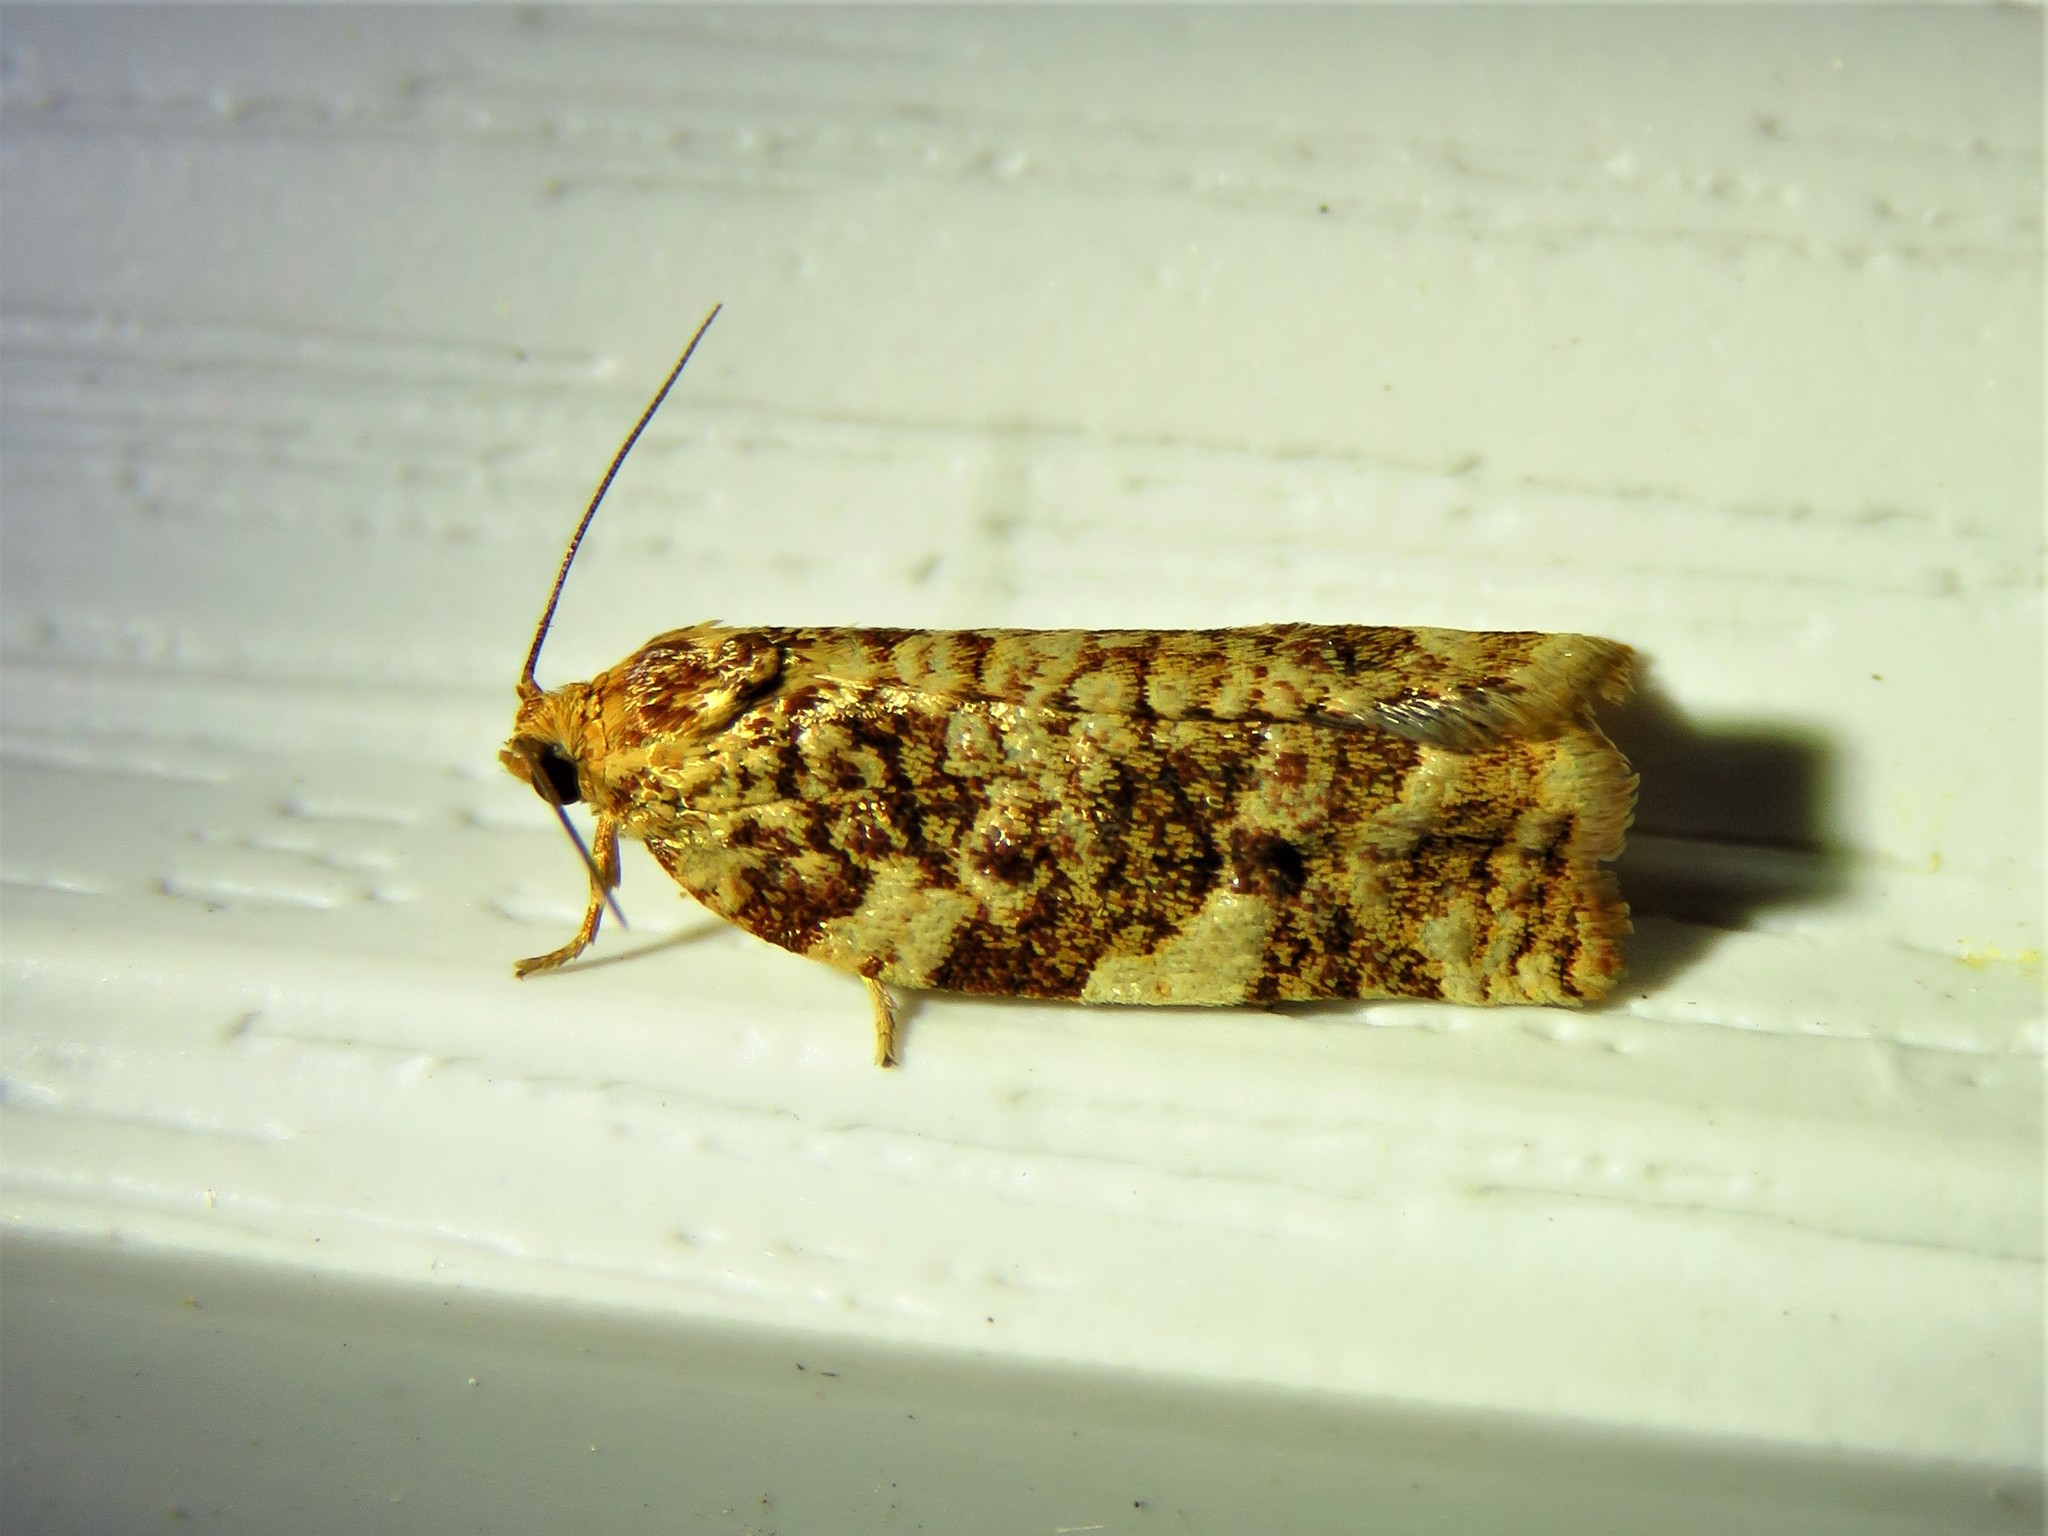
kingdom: Animalia
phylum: Arthropoda
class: Insecta
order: Lepidoptera
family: Tortricidae
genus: Archips
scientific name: Archips argyrospila
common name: Fruit-tree leafroller moth
